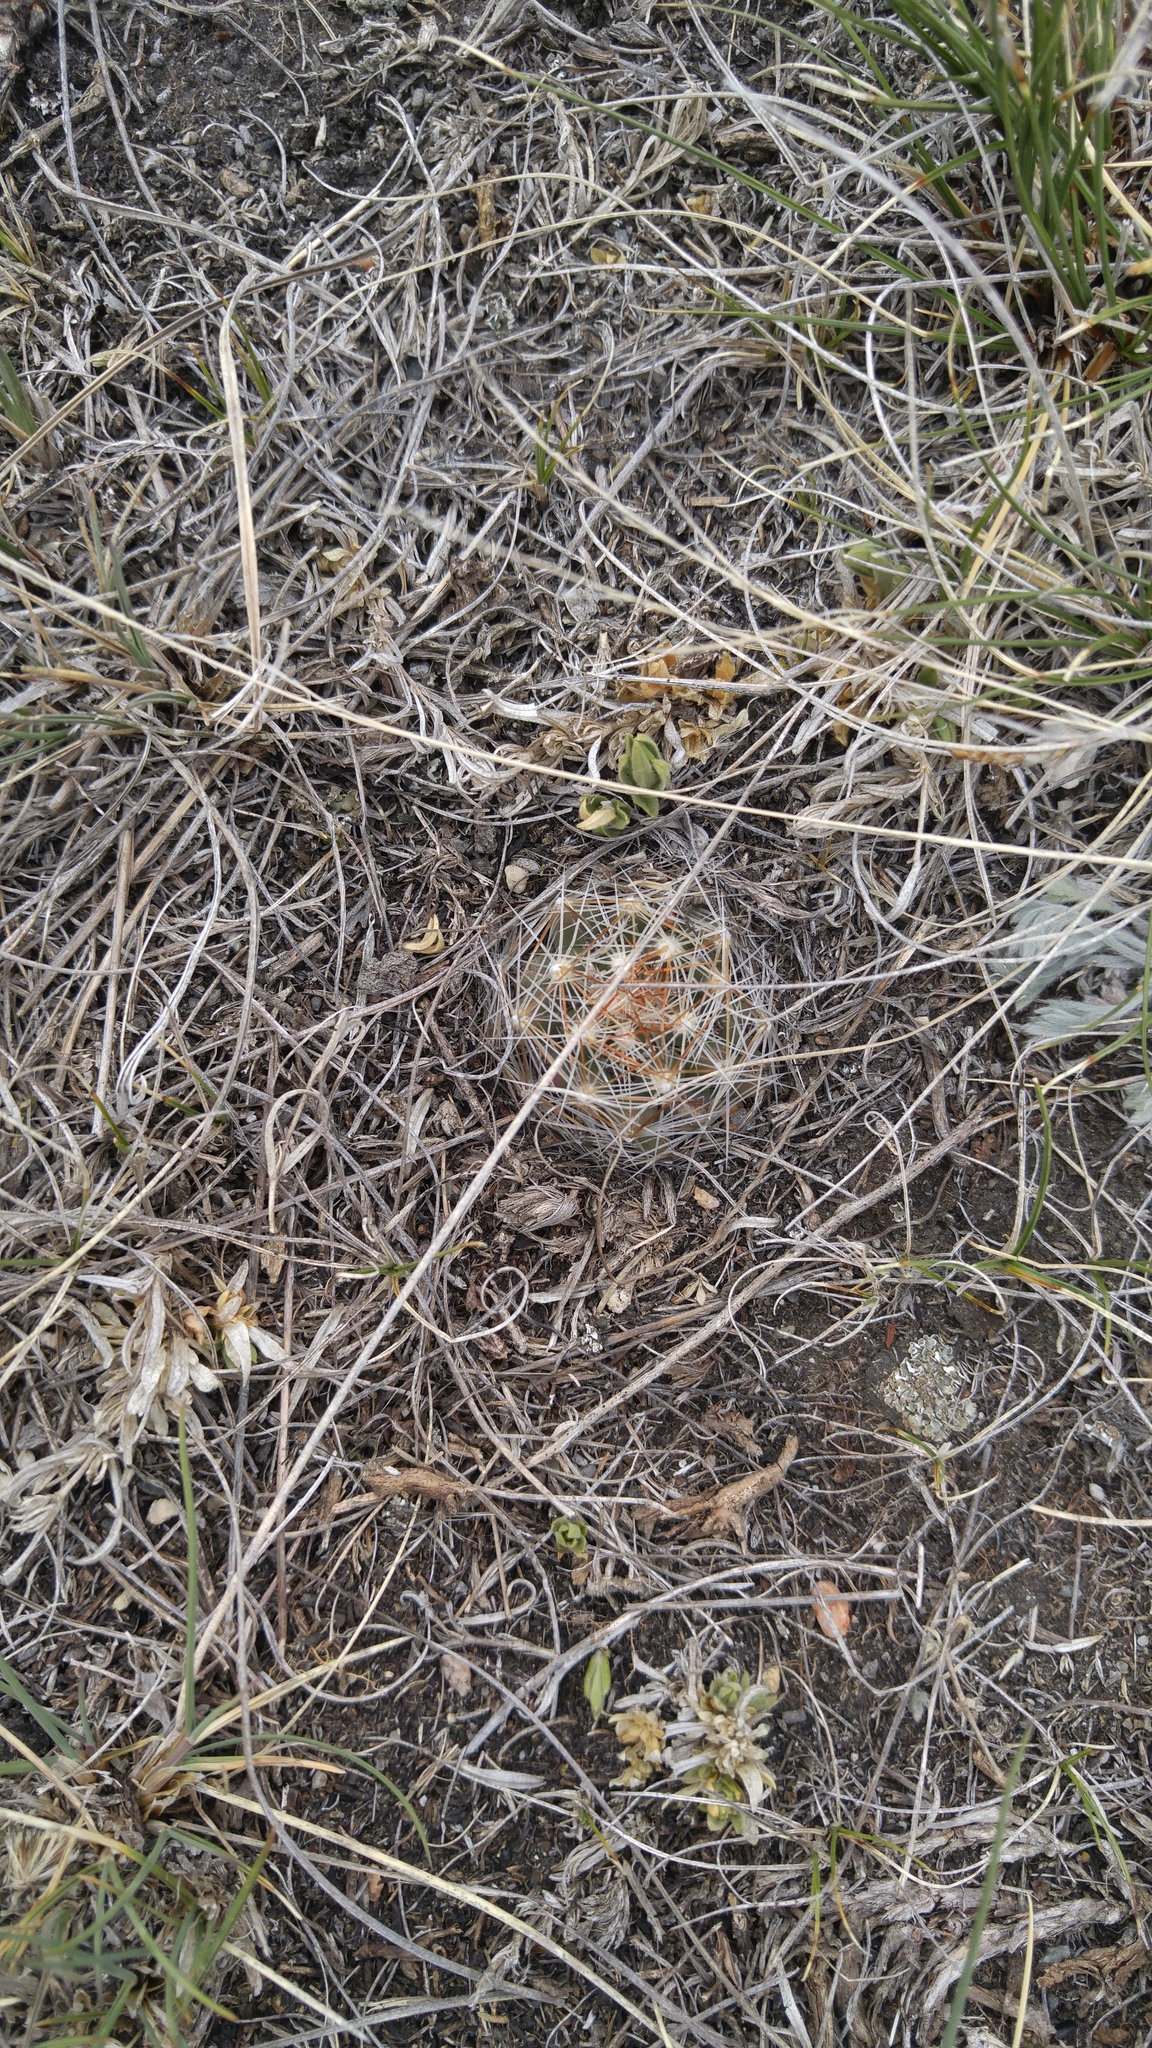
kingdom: Plantae
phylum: Tracheophyta
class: Magnoliopsida
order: Caryophyllales
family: Cactaceae
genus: Pelecyphora
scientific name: Pelecyphora vivipara
